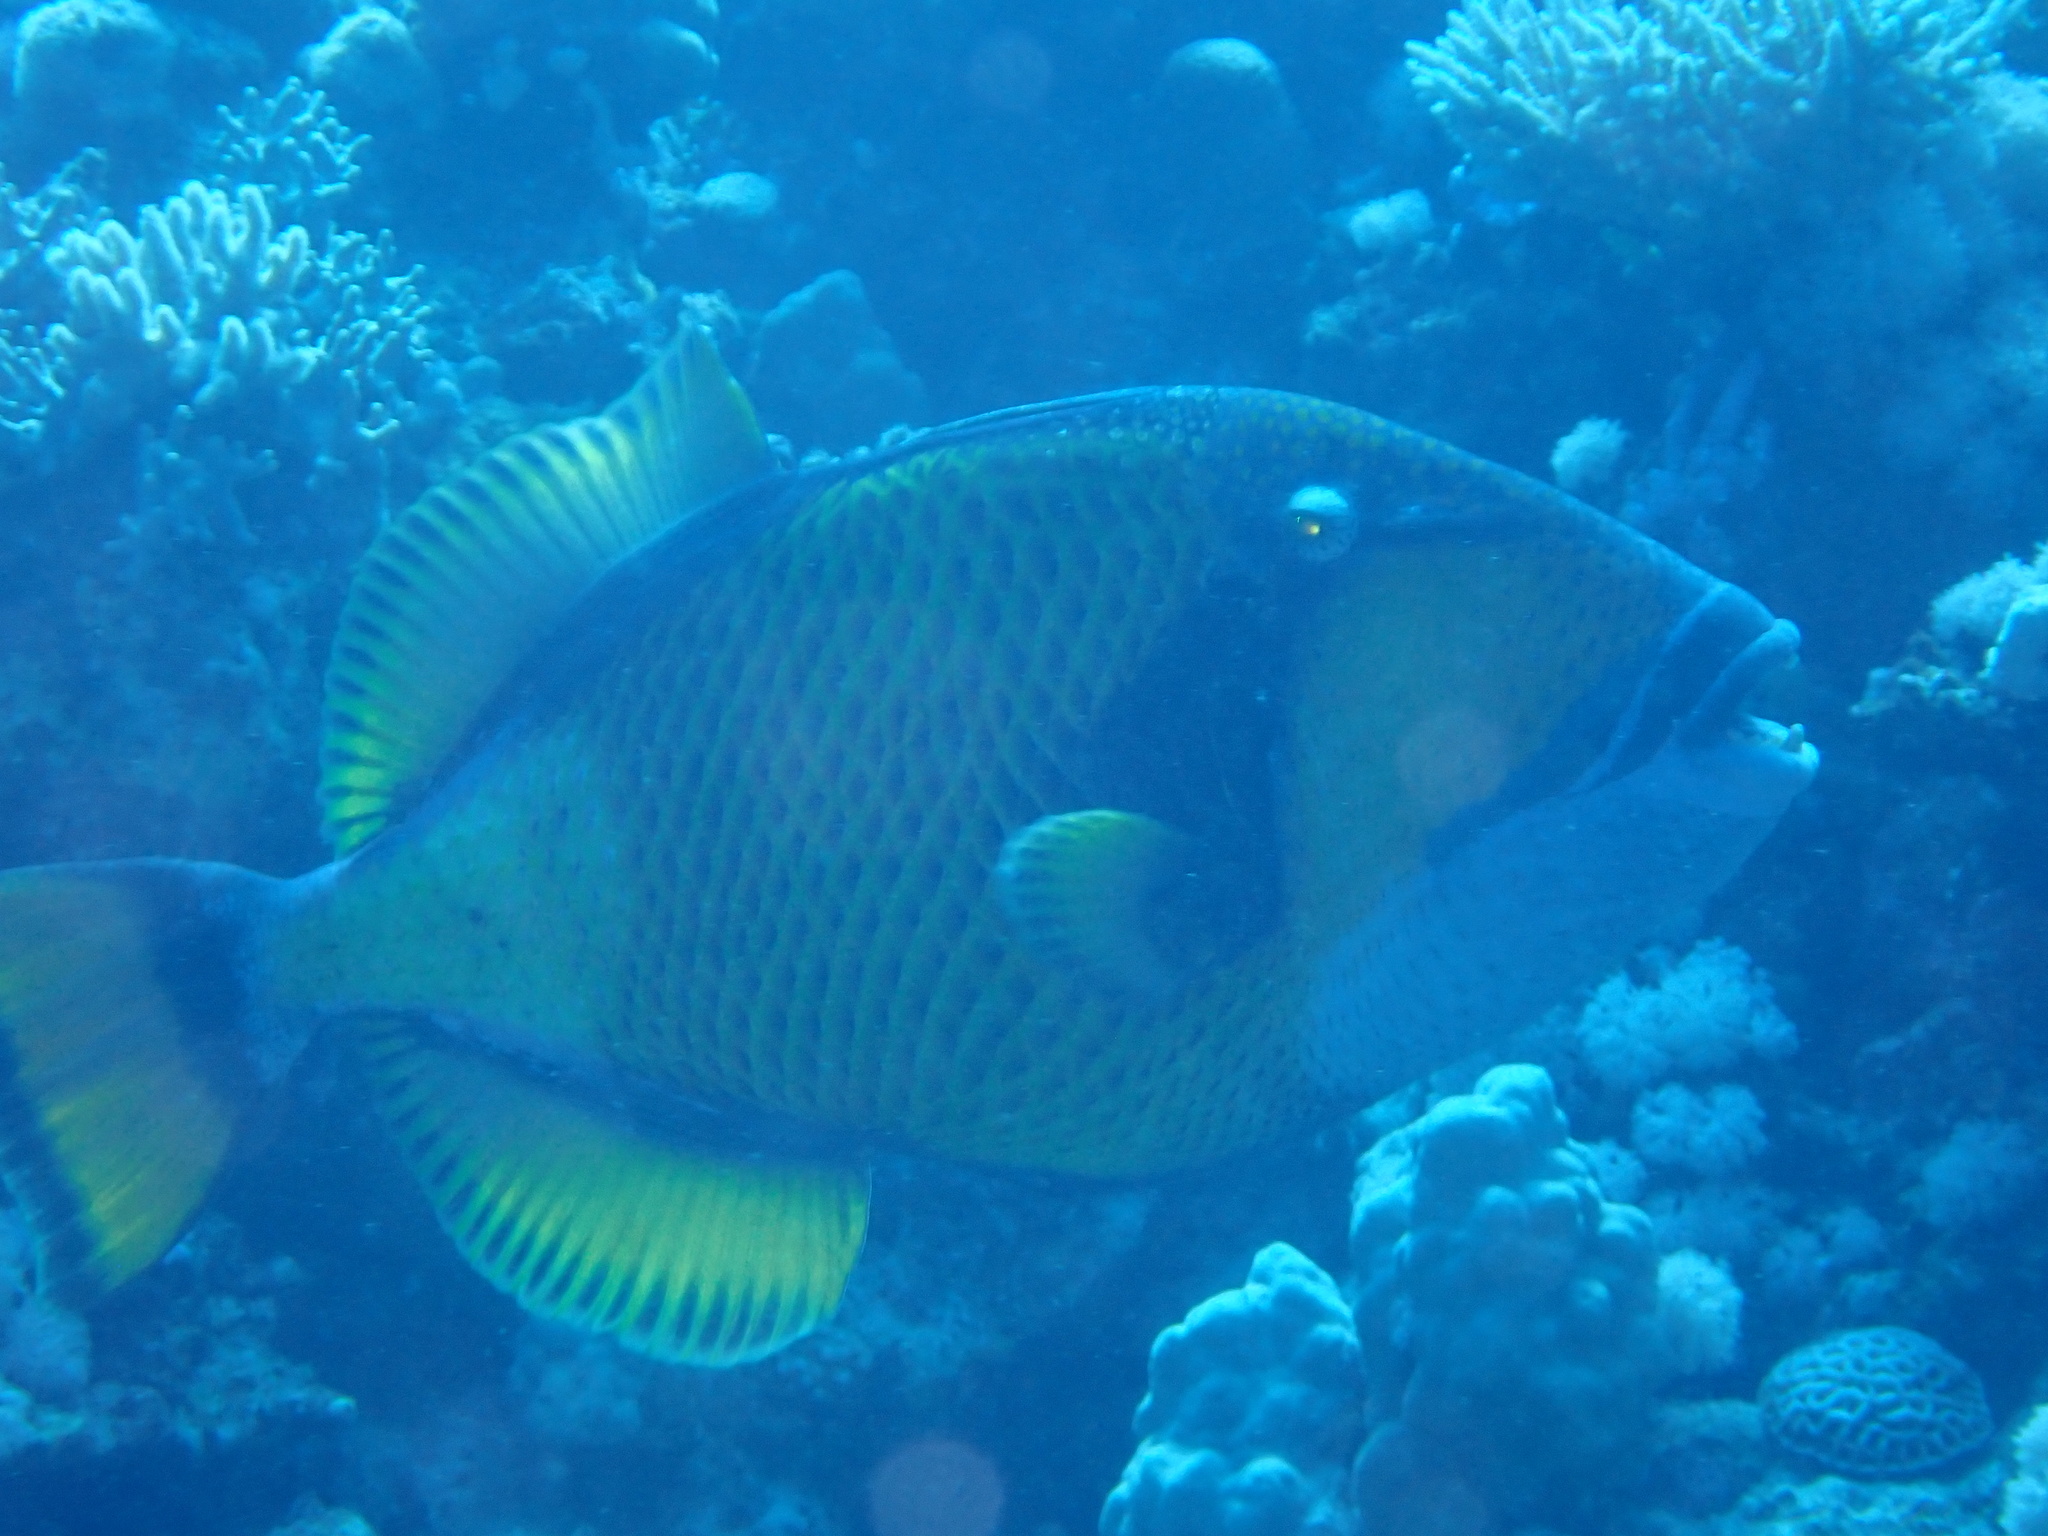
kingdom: Animalia
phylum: Chordata
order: Tetraodontiformes
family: Balistidae
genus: Balistoides
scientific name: Balistoides viridescens
